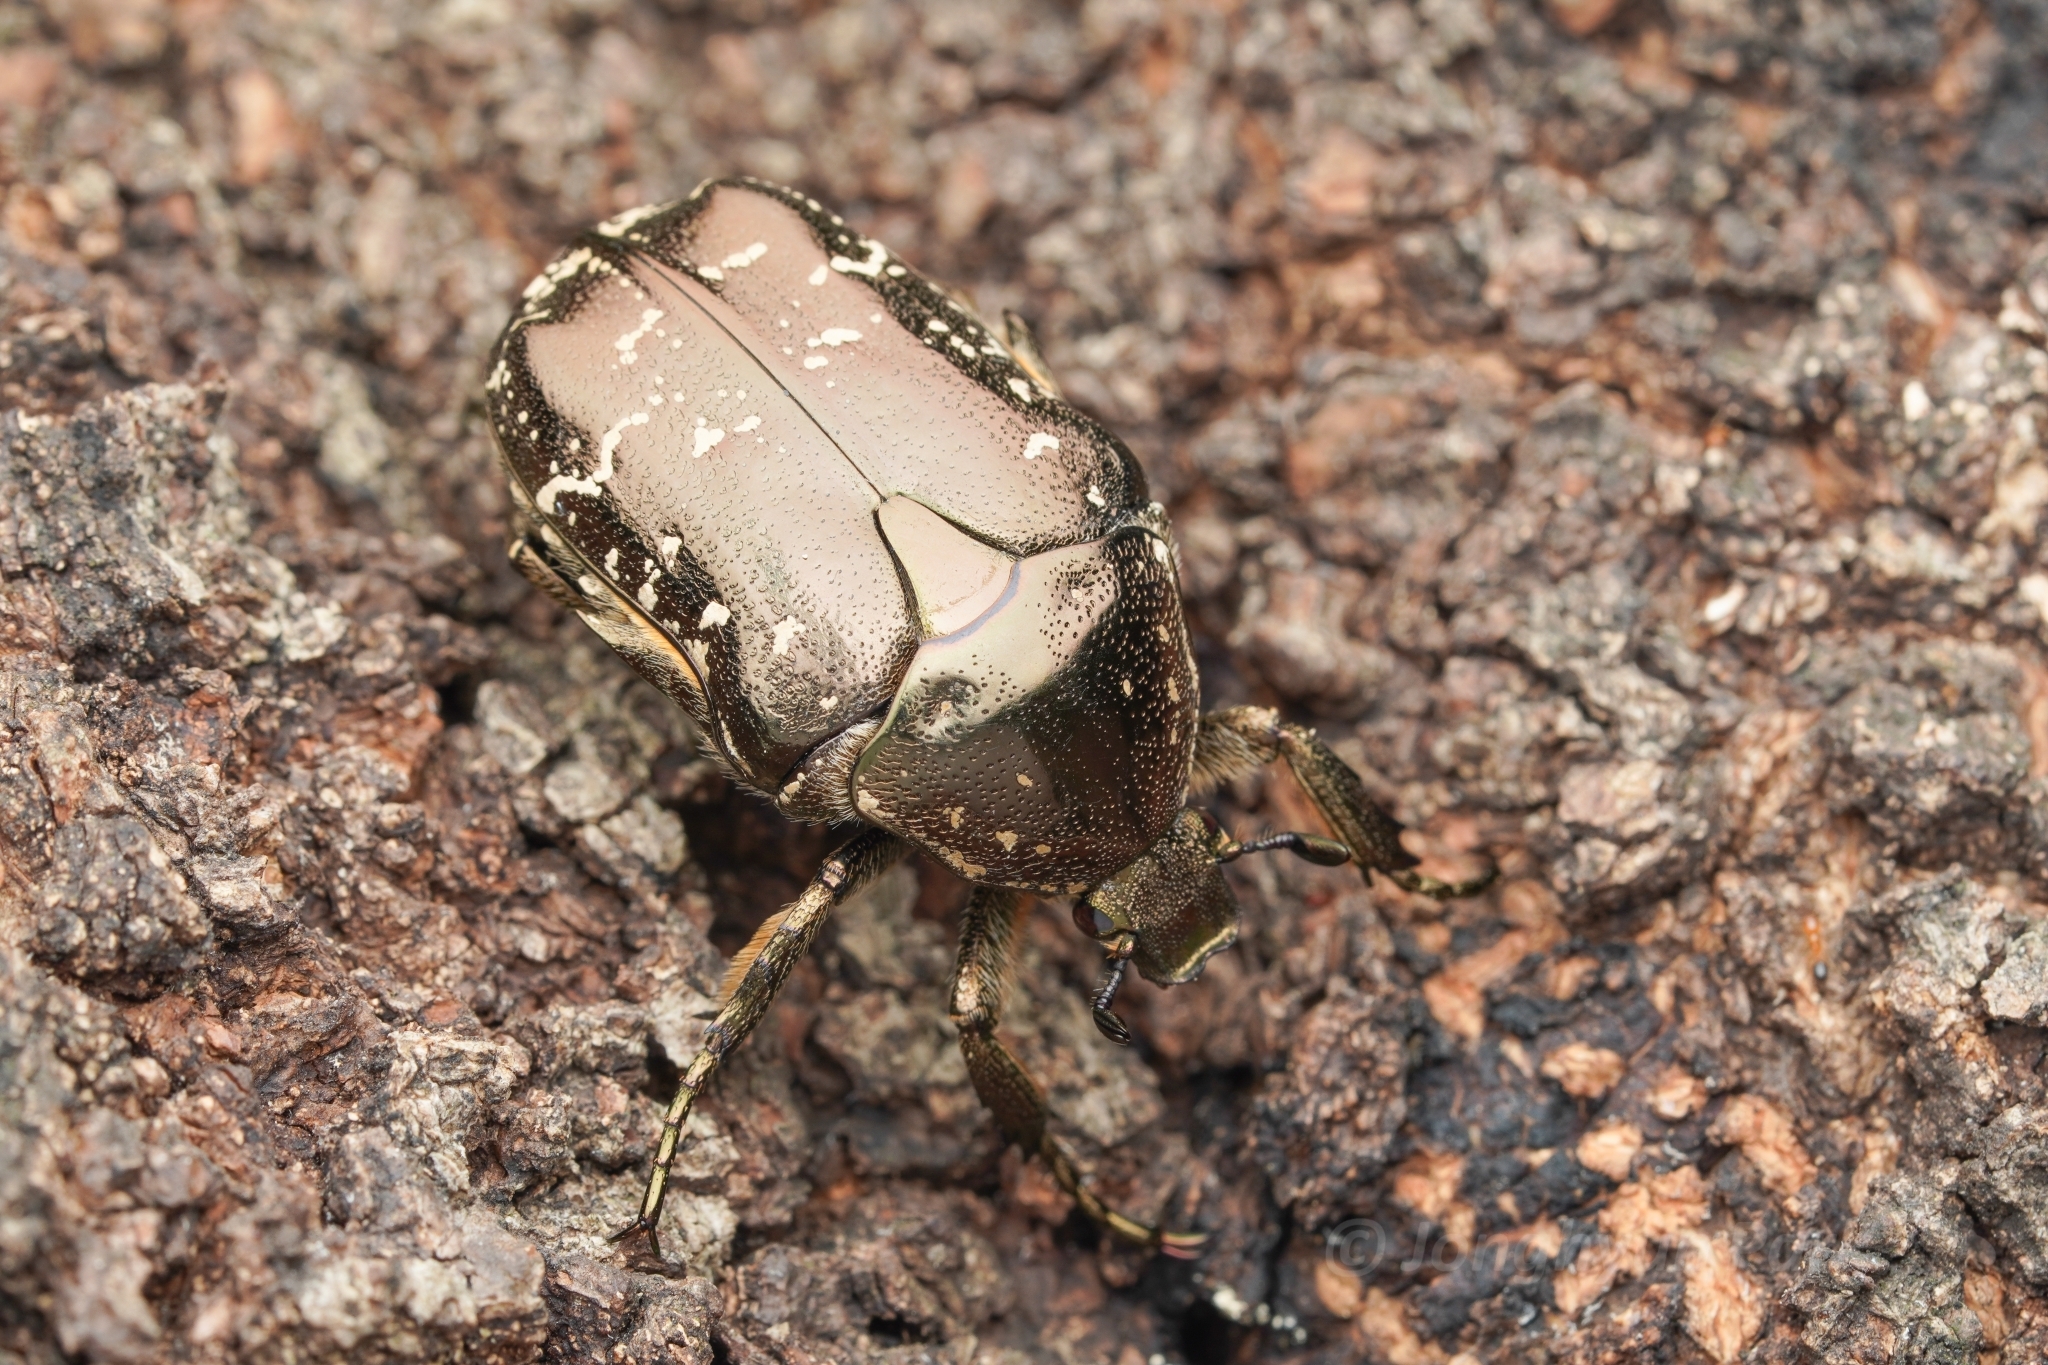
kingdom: Animalia
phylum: Arthropoda
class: Insecta
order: Coleoptera
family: Scarabaeidae
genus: Protaetia
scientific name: Protaetia orientalis
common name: Oriental flower beetle
